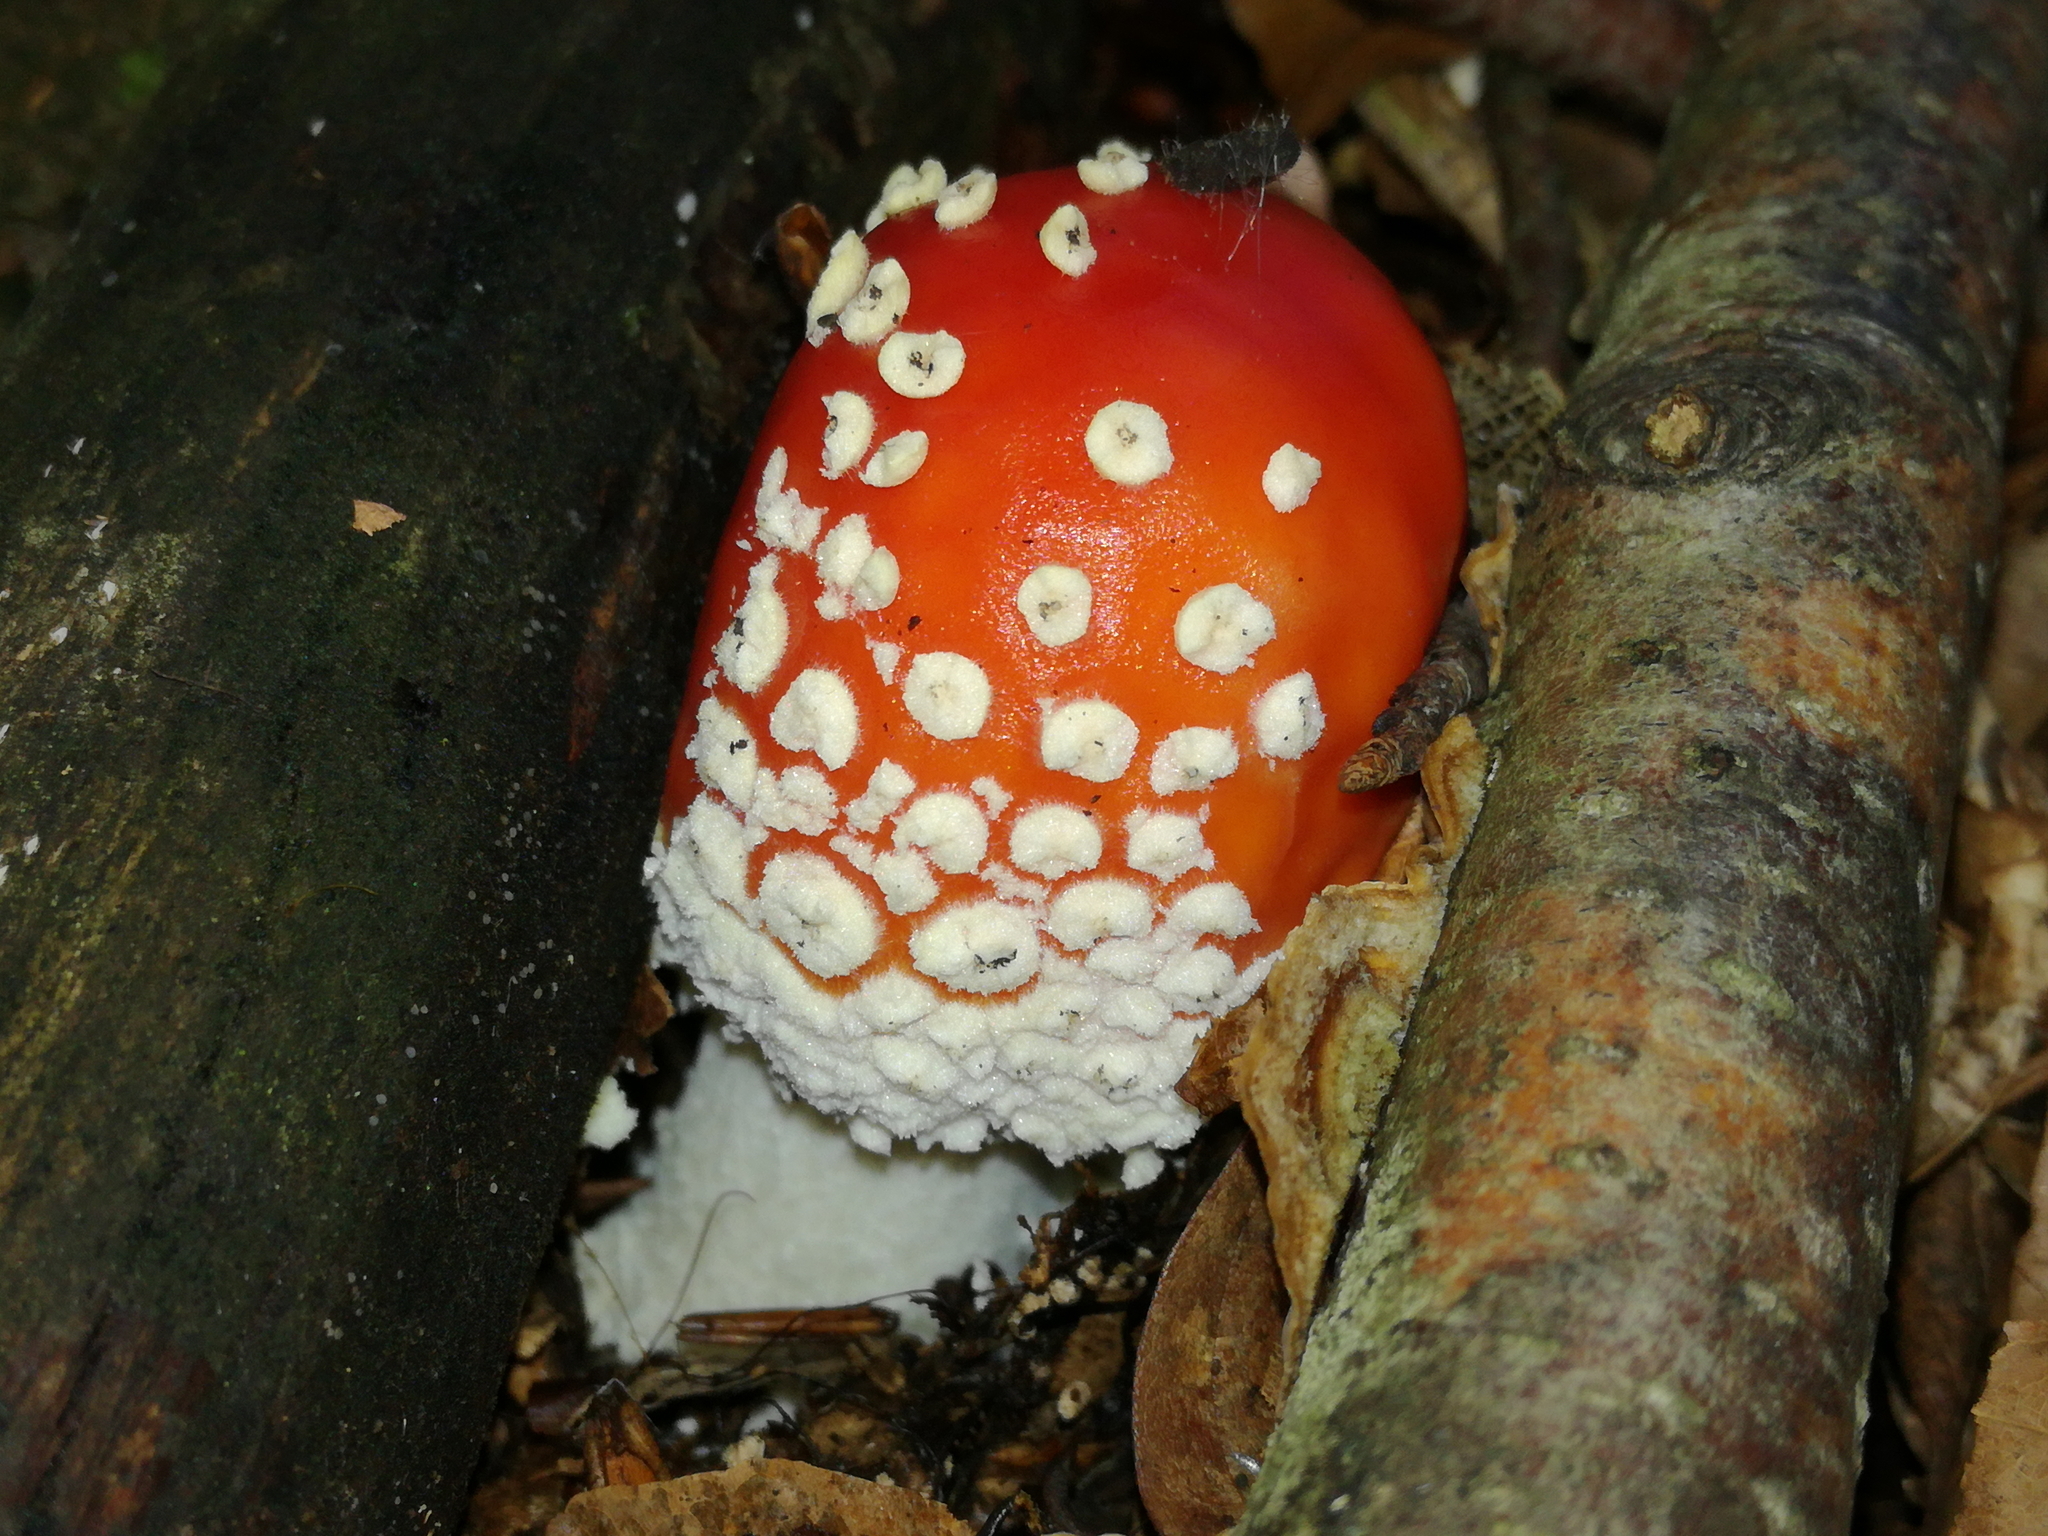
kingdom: Fungi
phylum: Basidiomycota
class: Agaricomycetes
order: Agaricales
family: Amanitaceae
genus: Amanita
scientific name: Amanita muscaria
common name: Fly agaric
